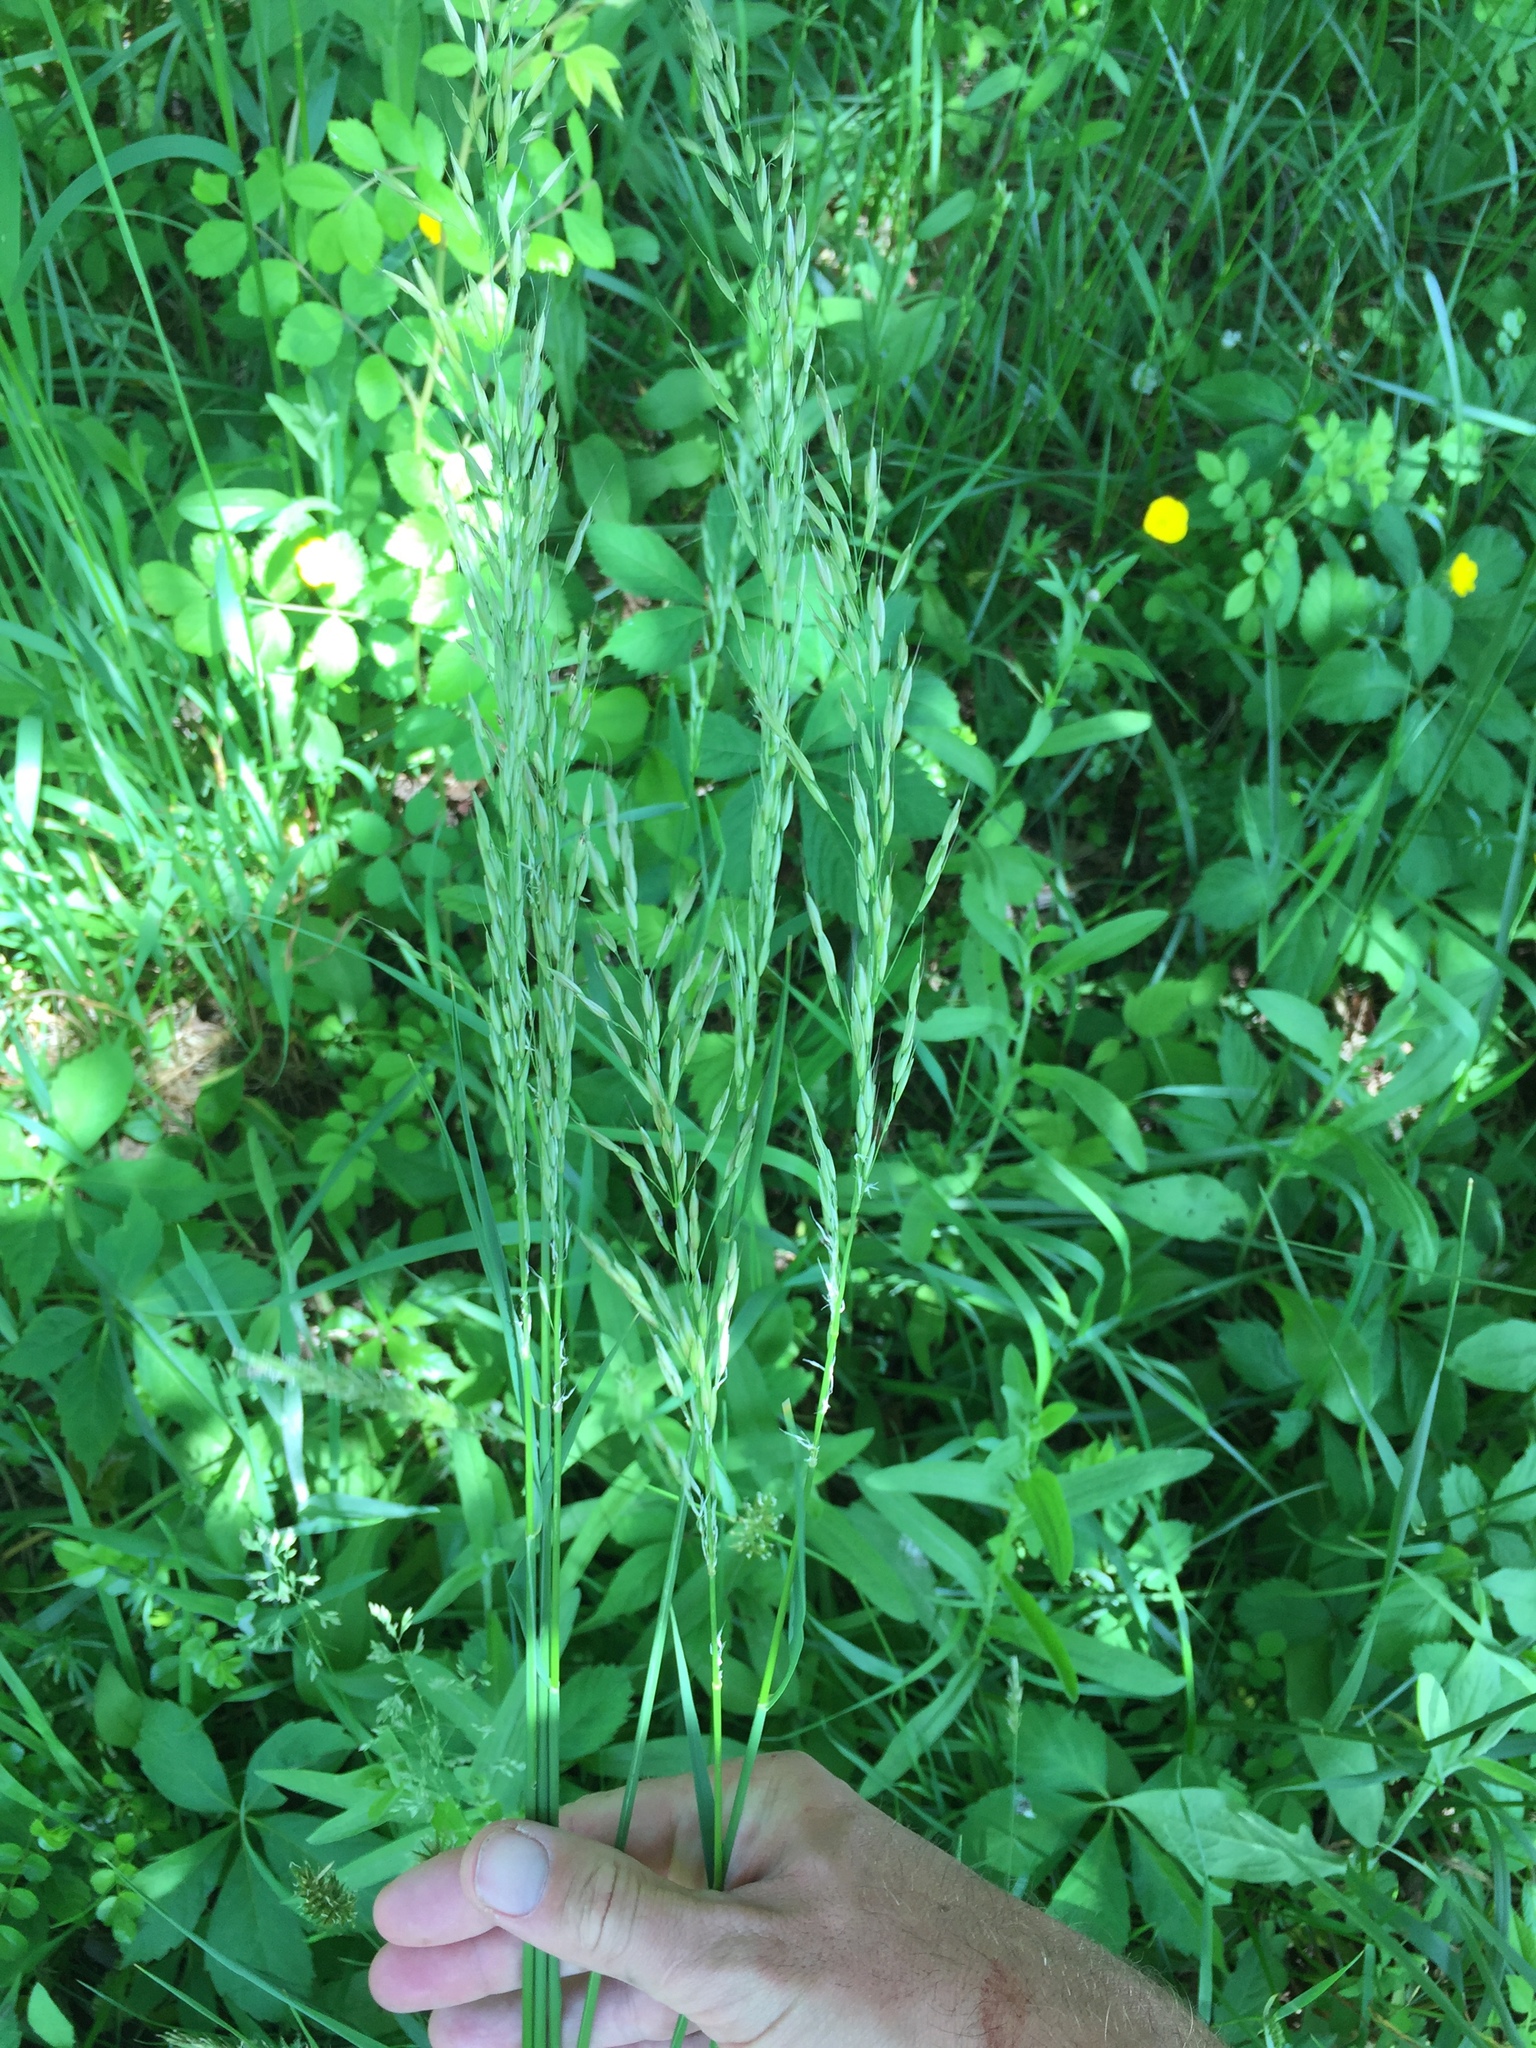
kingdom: Plantae
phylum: Tracheophyta
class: Liliopsida
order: Poales
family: Poaceae
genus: Bromus
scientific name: Bromus inermis
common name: Smooth brome
